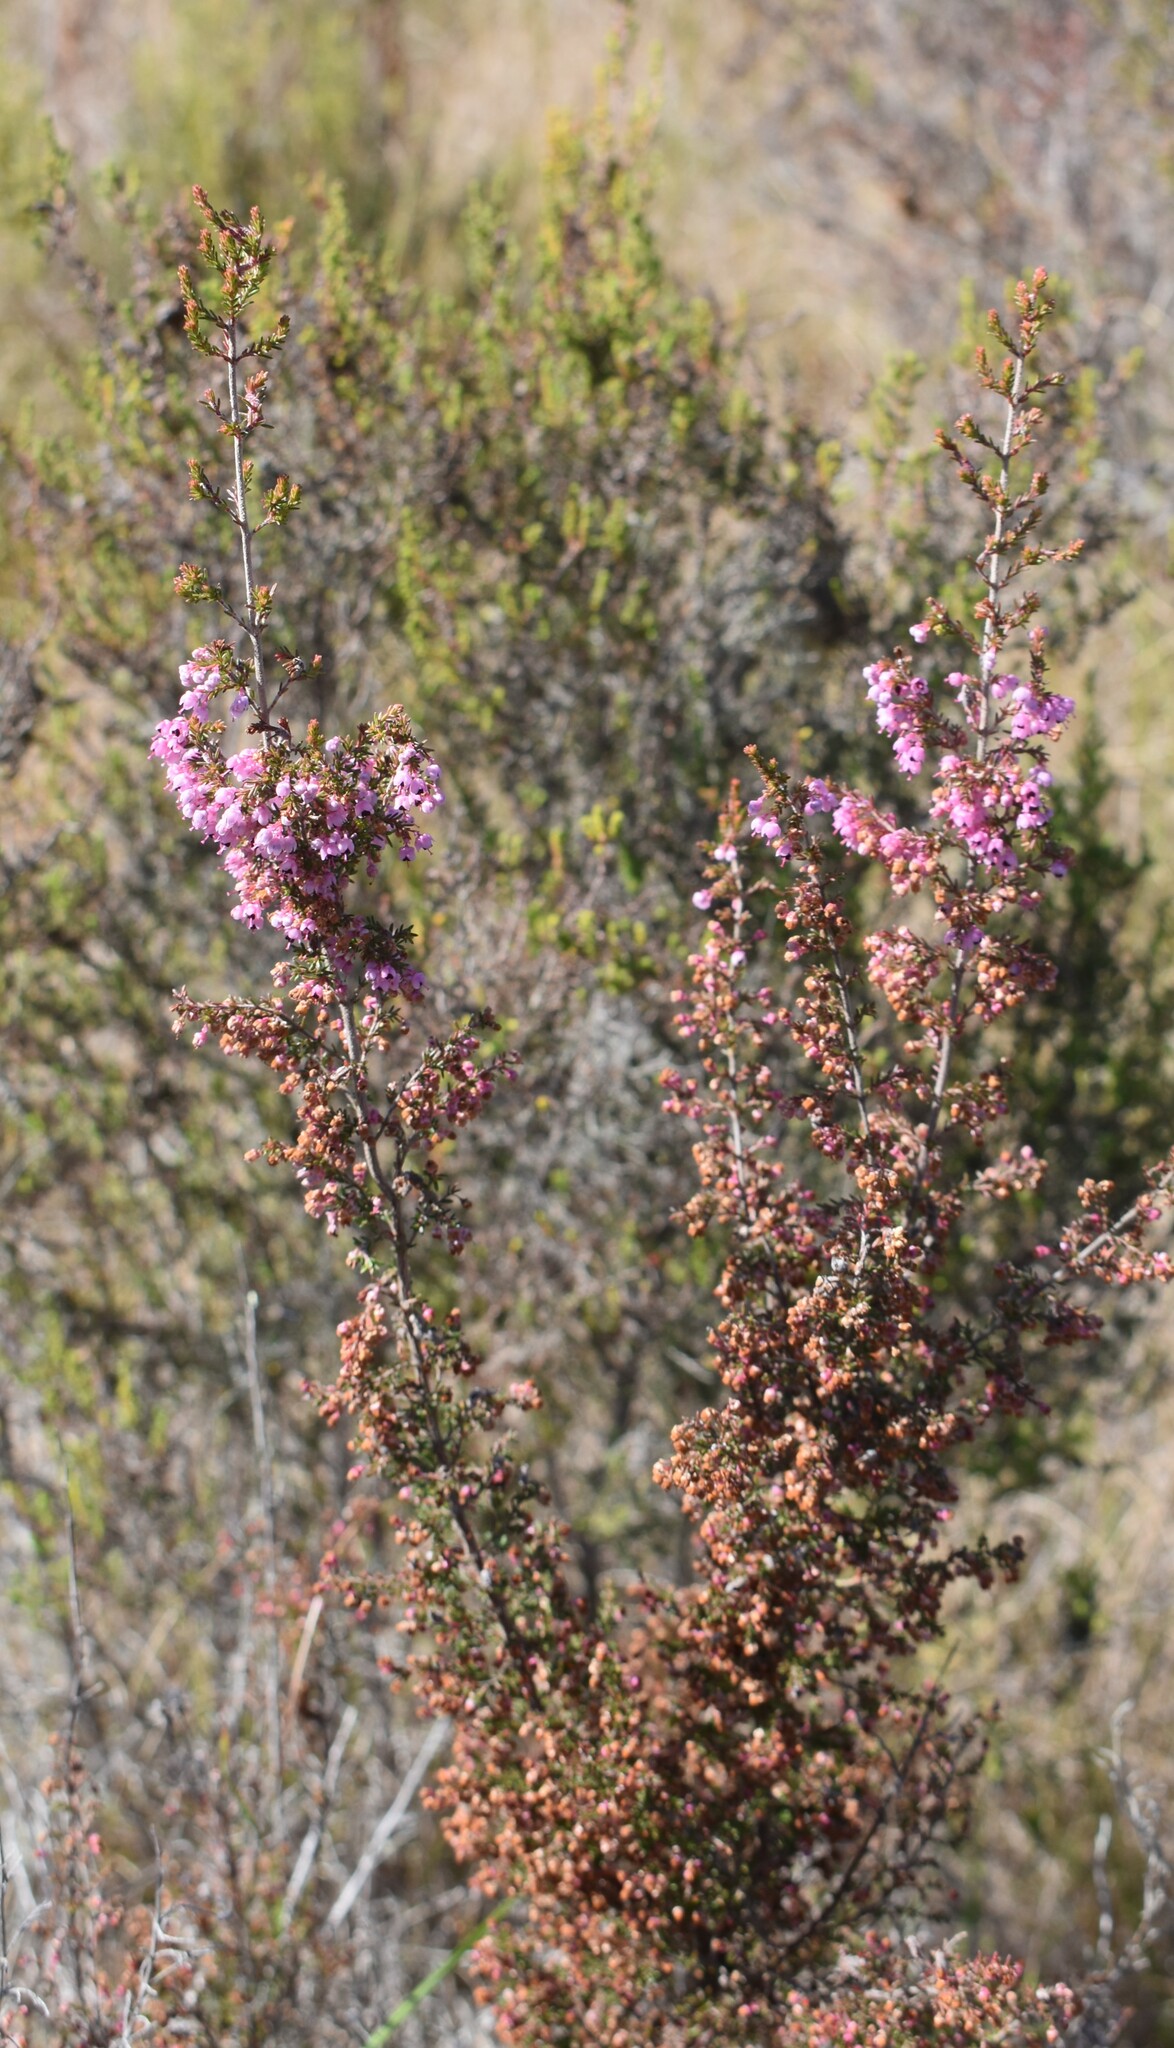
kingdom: Plantae
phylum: Tracheophyta
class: Magnoliopsida
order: Ericales
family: Ericaceae
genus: Erica
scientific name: Erica sparsa
